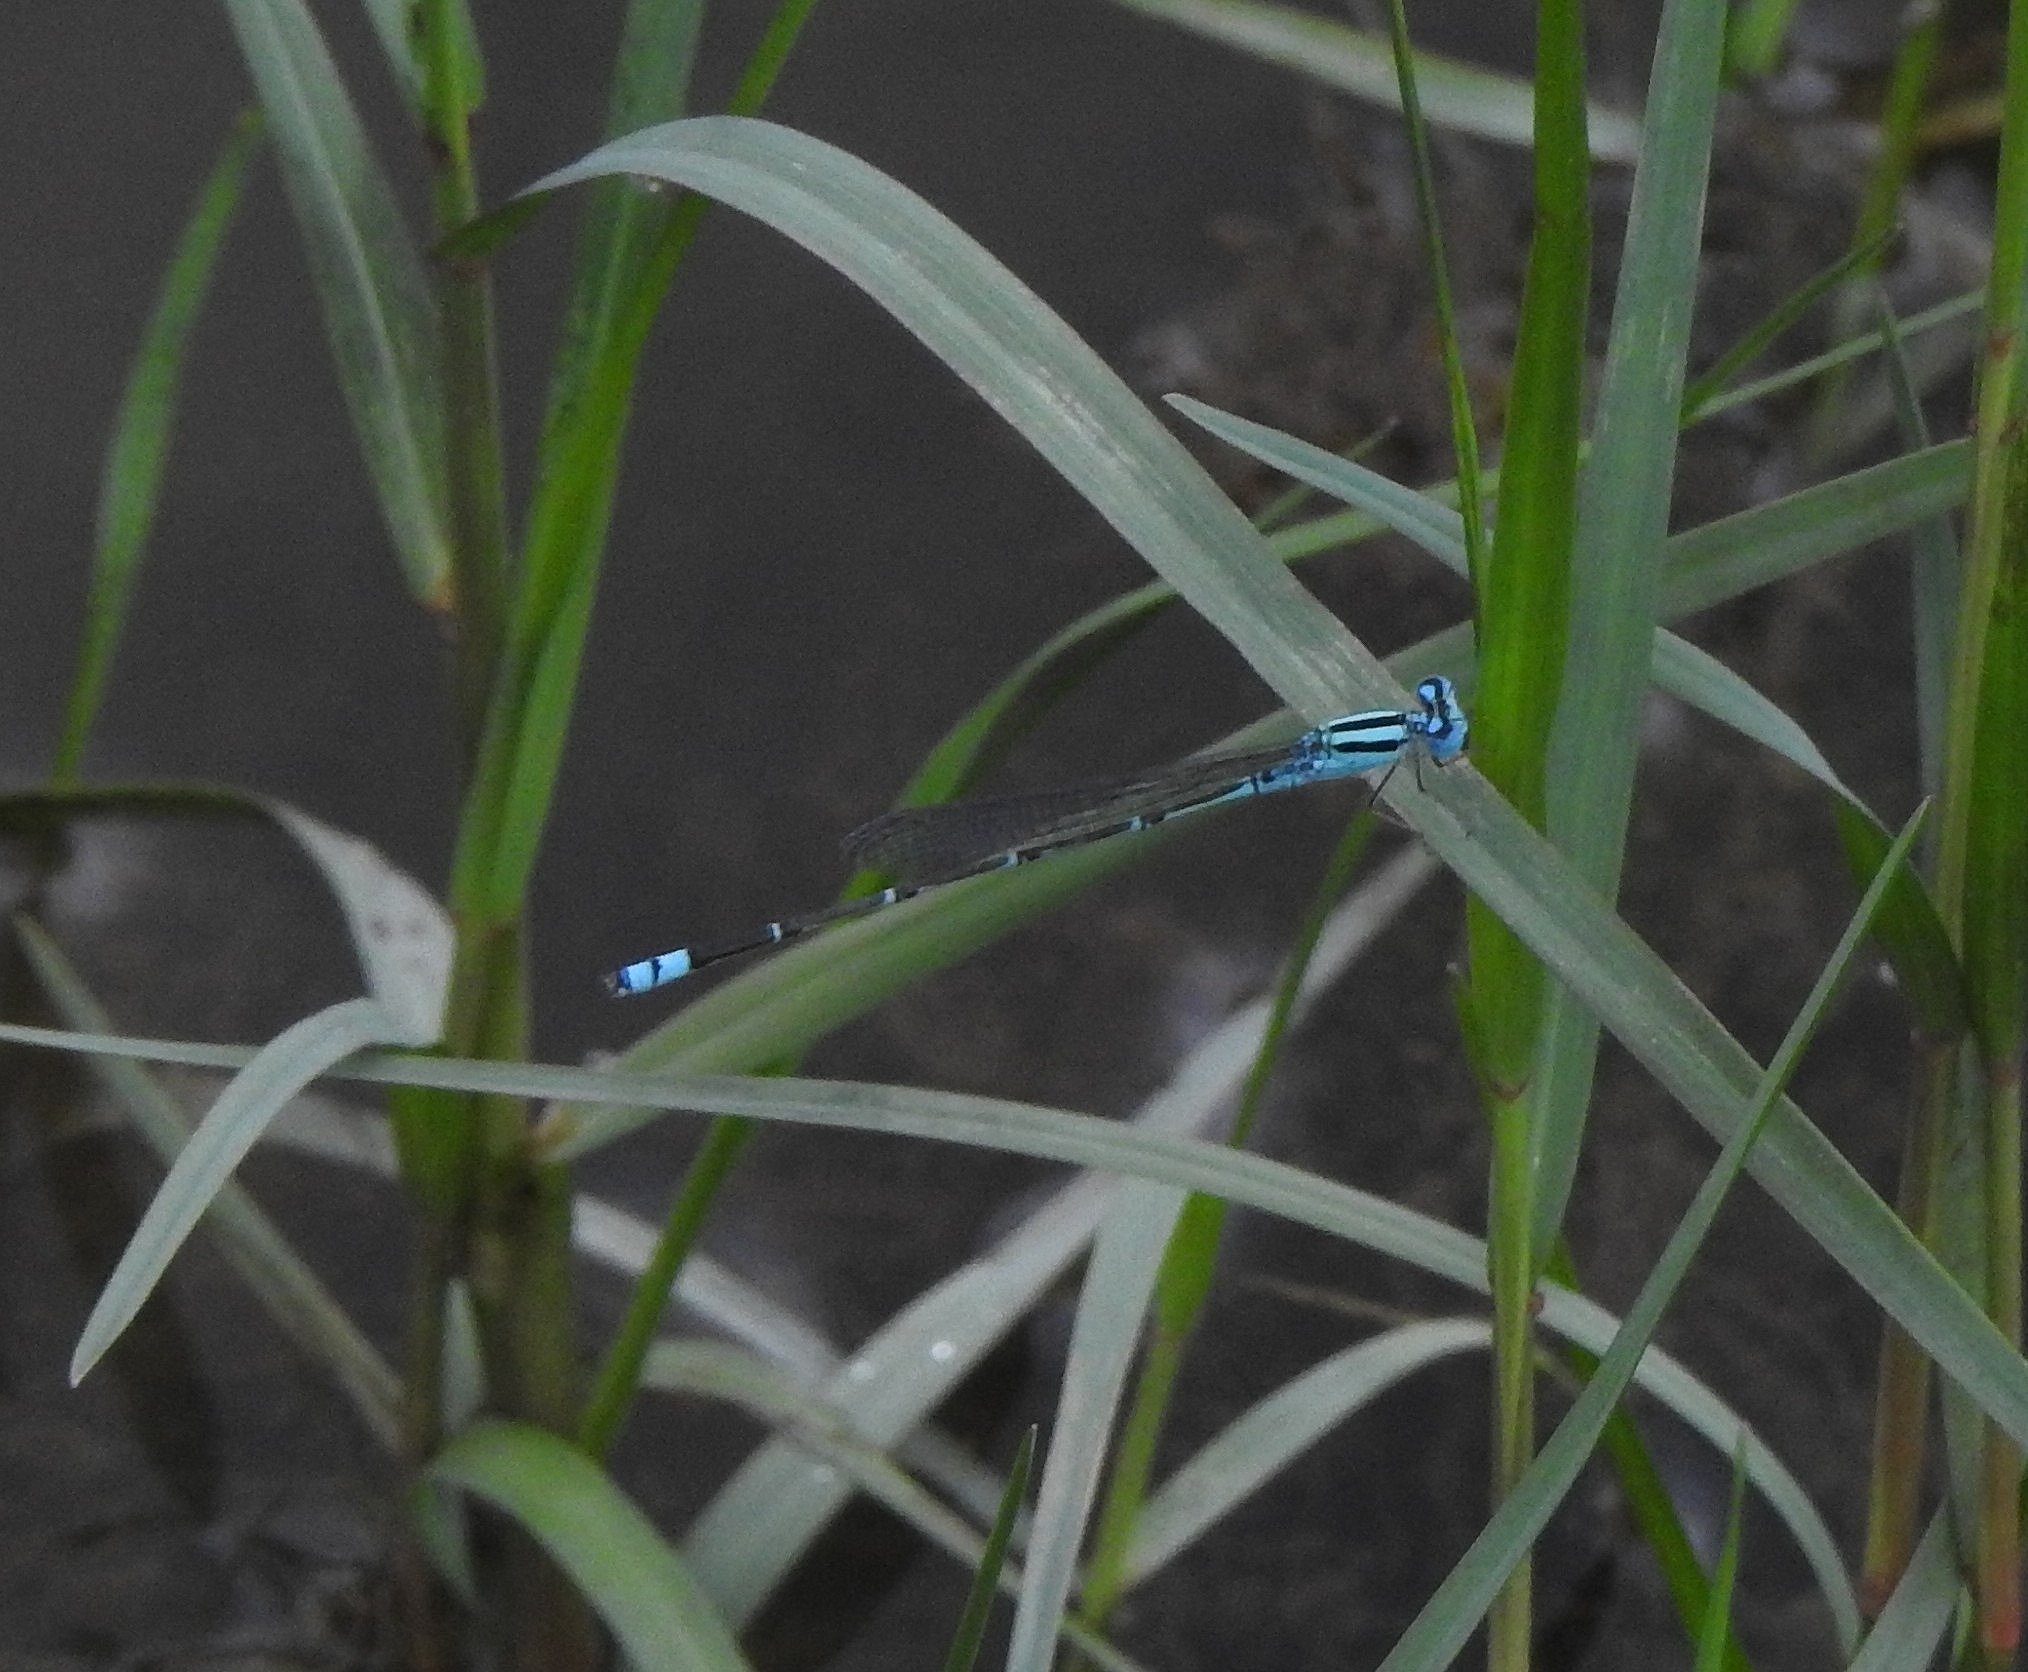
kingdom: Animalia
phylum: Arthropoda
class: Insecta
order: Odonata
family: Coenagrionidae
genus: Pseudagrion
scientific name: Pseudagrion microcephalum
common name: Blue riverdamsel
